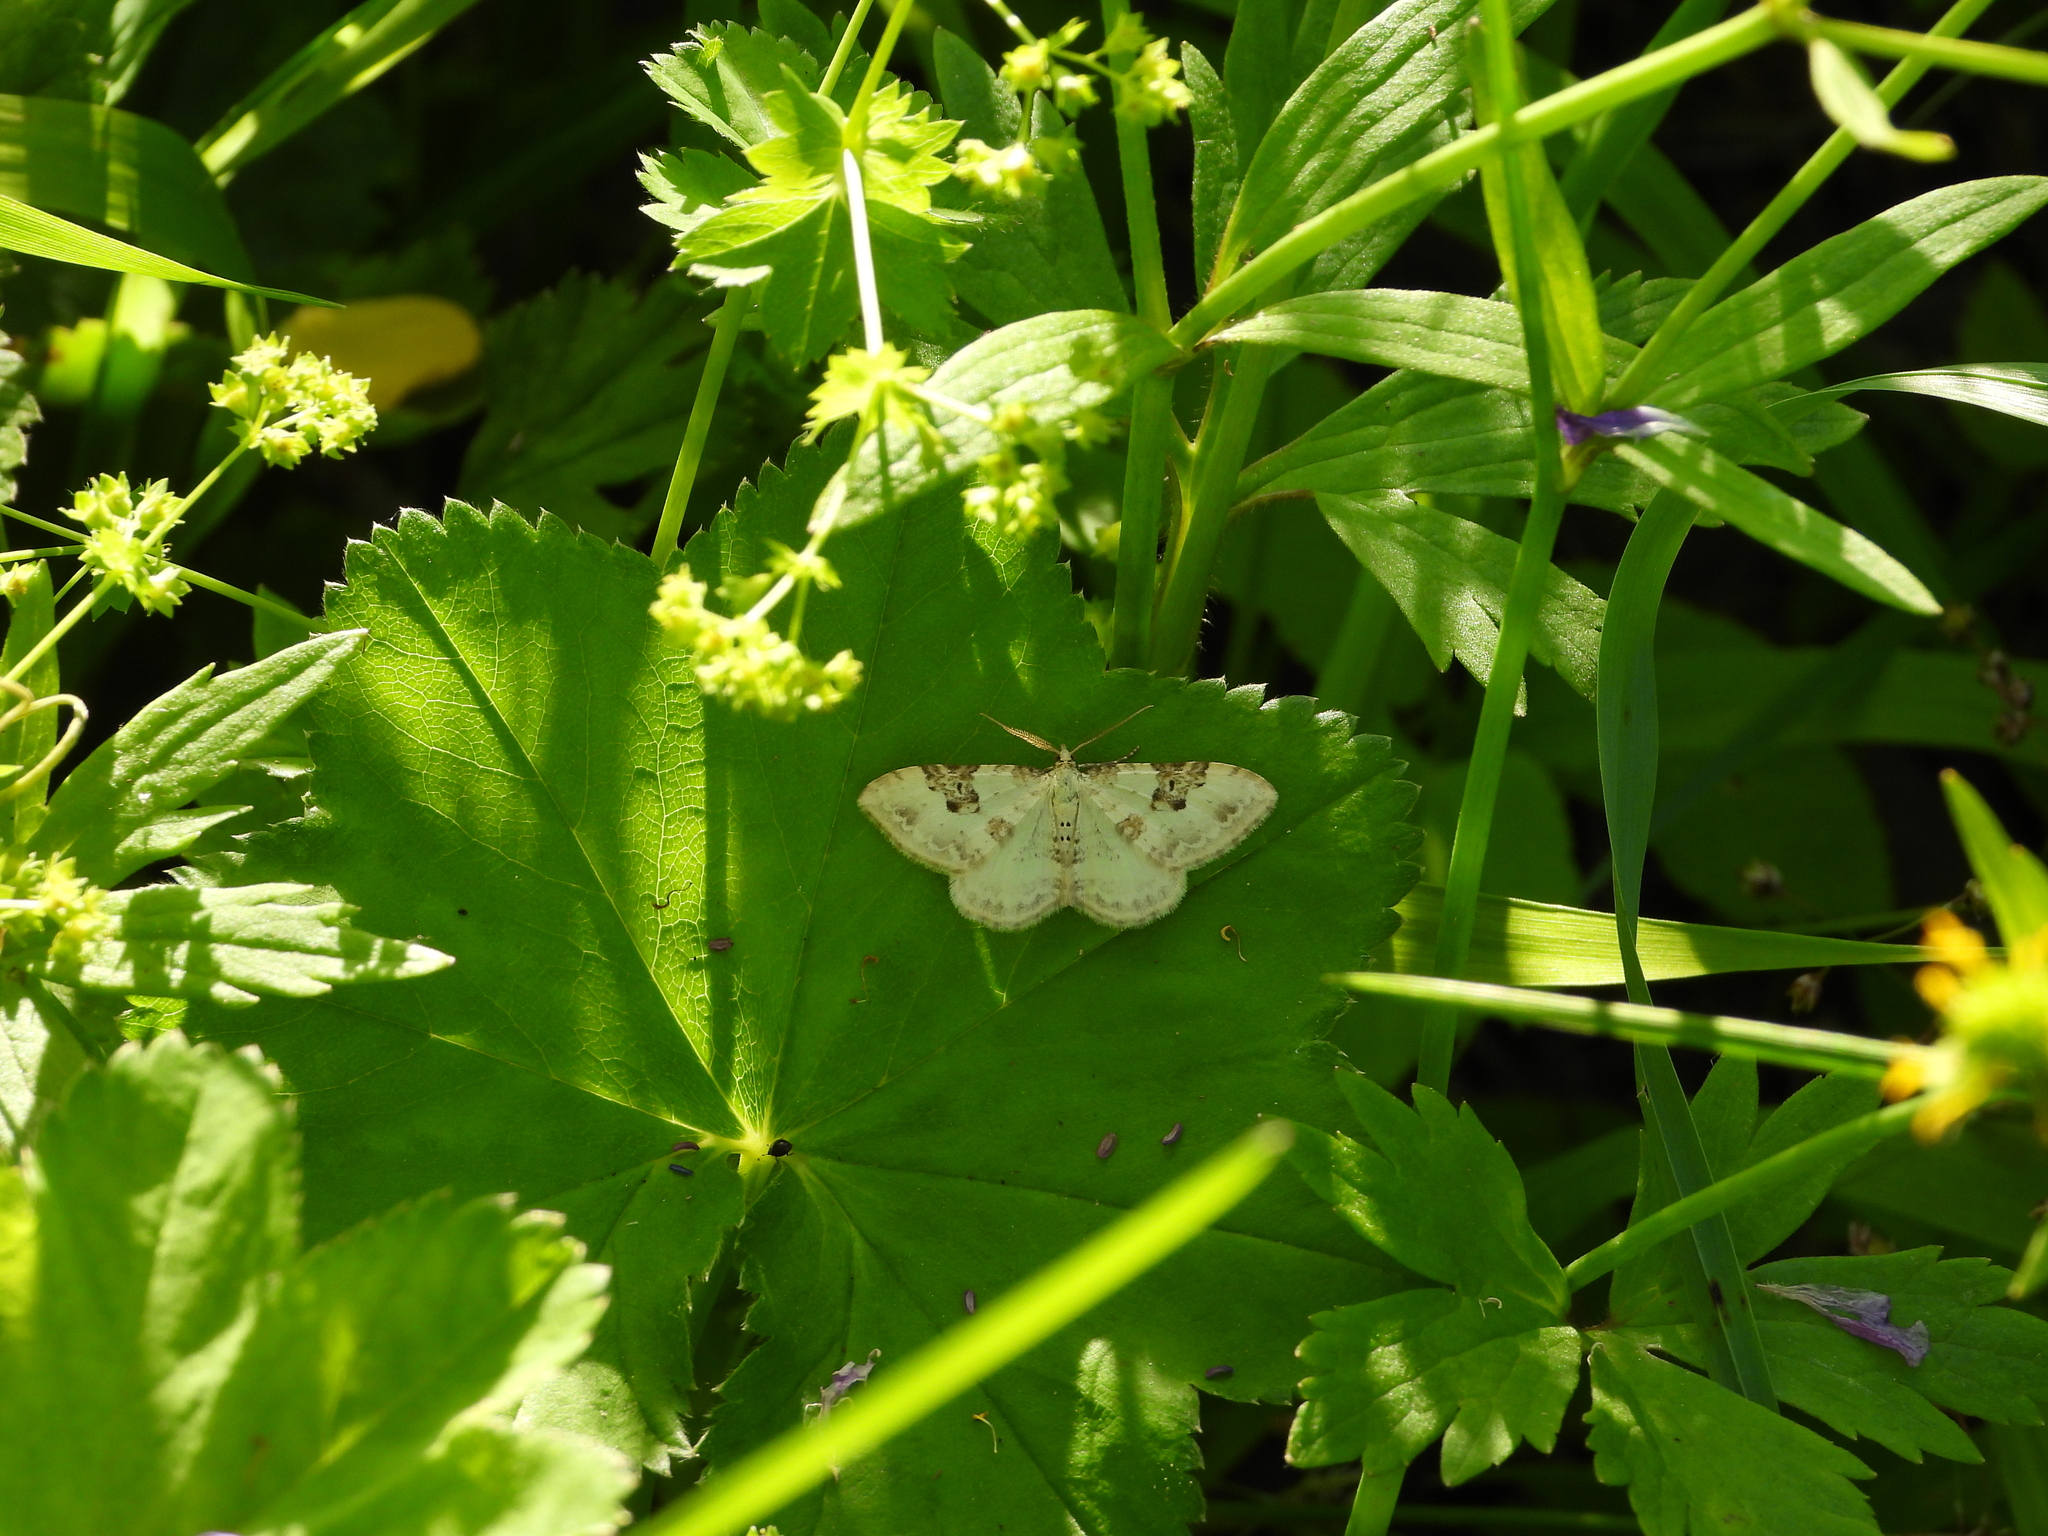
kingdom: Animalia
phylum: Arthropoda
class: Insecta
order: Lepidoptera
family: Geometridae
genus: Xanthorhoe
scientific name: Xanthorhoe montanata
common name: Silver-ground carpet
